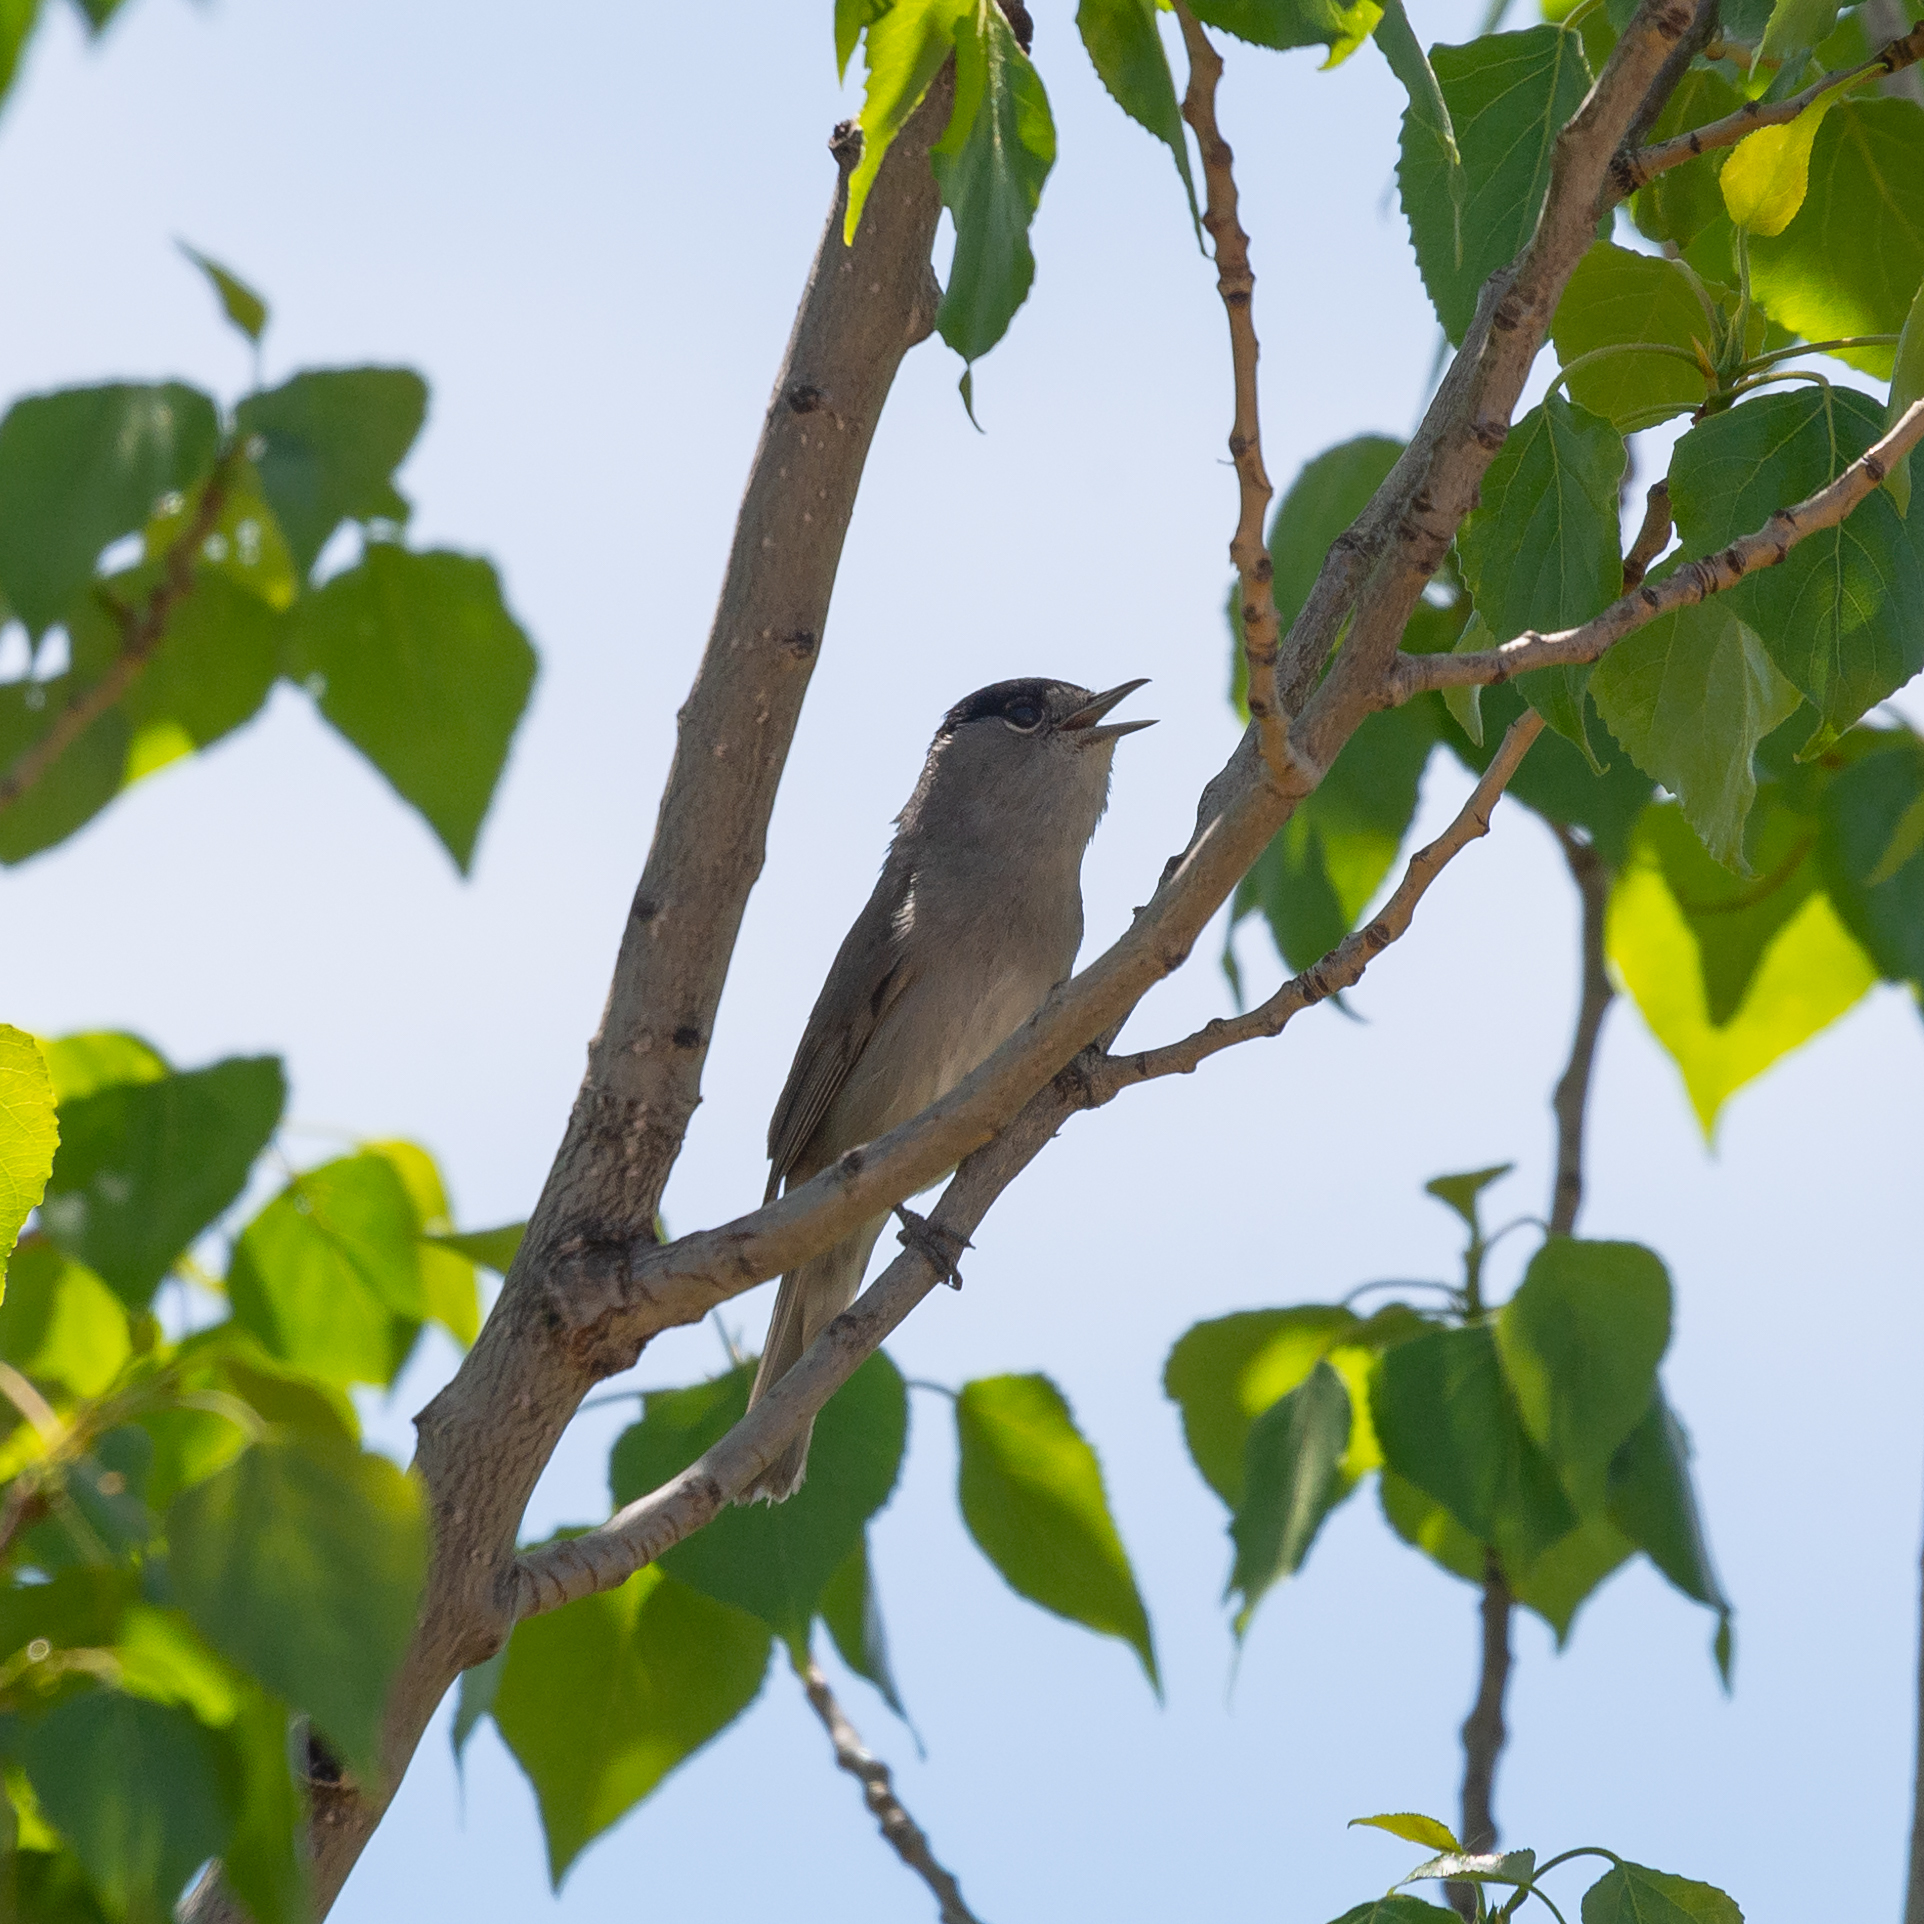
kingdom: Animalia
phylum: Chordata
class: Aves
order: Passeriformes
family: Sylviidae
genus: Sylvia
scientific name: Sylvia atricapilla
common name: Eurasian blackcap
